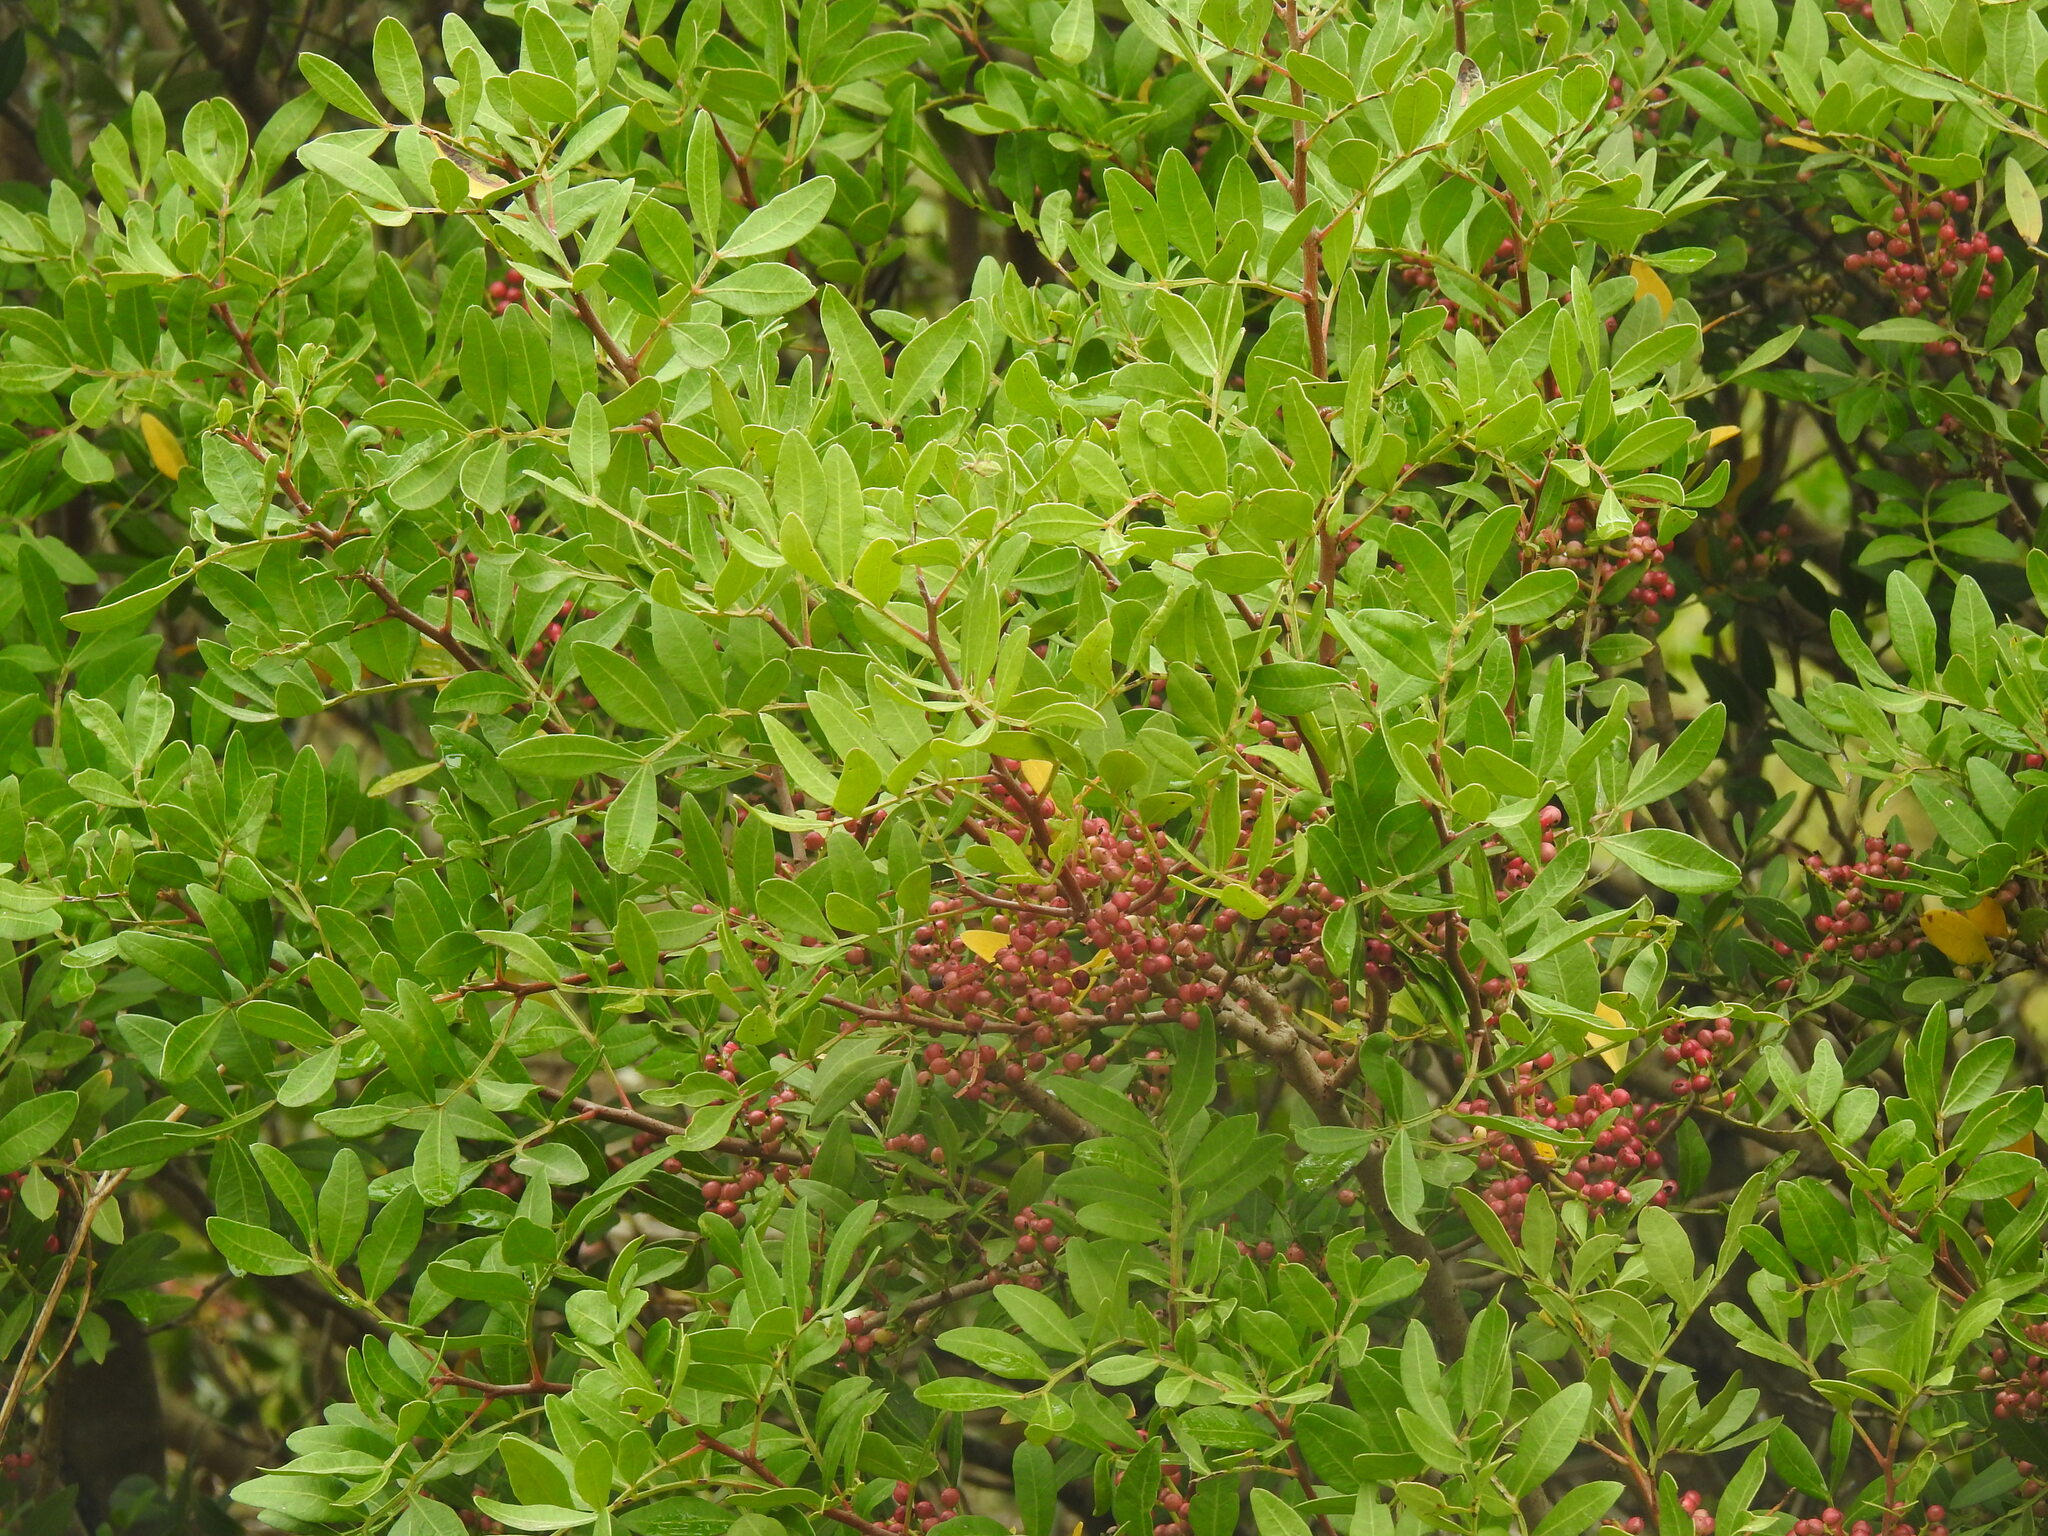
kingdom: Plantae
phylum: Tracheophyta
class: Magnoliopsida
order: Sapindales
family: Anacardiaceae
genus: Pistacia
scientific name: Pistacia lentiscus
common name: Lentisk
